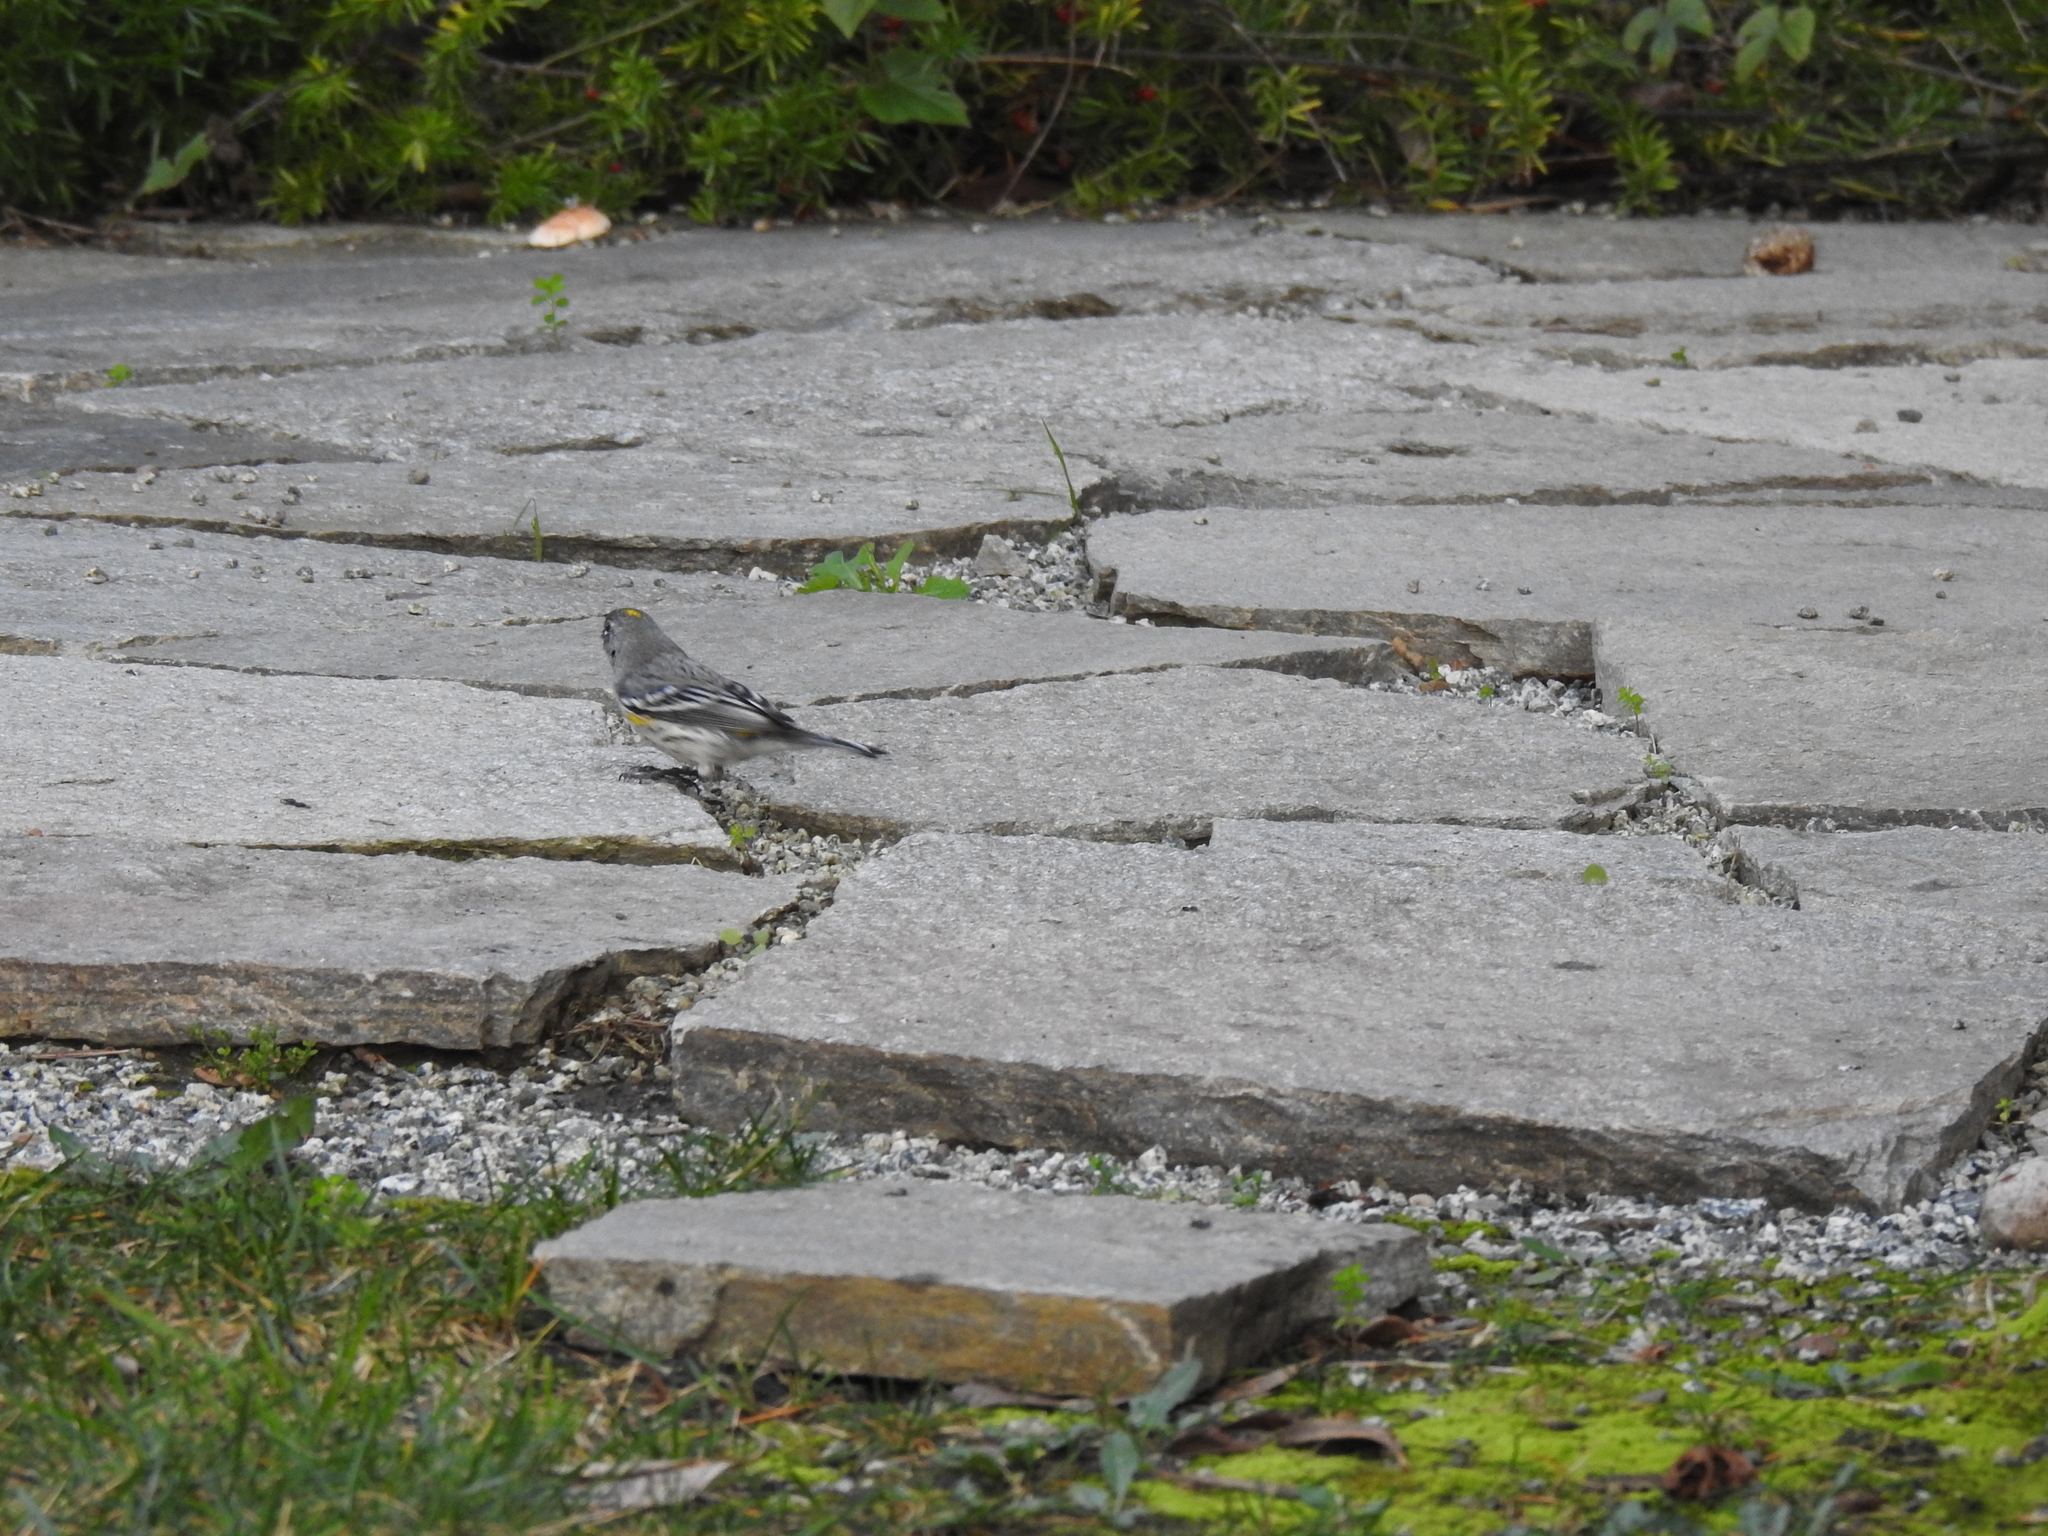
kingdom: Animalia
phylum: Chordata
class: Aves
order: Passeriformes
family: Parulidae
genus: Setophaga
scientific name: Setophaga coronata
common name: Myrtle warbler
